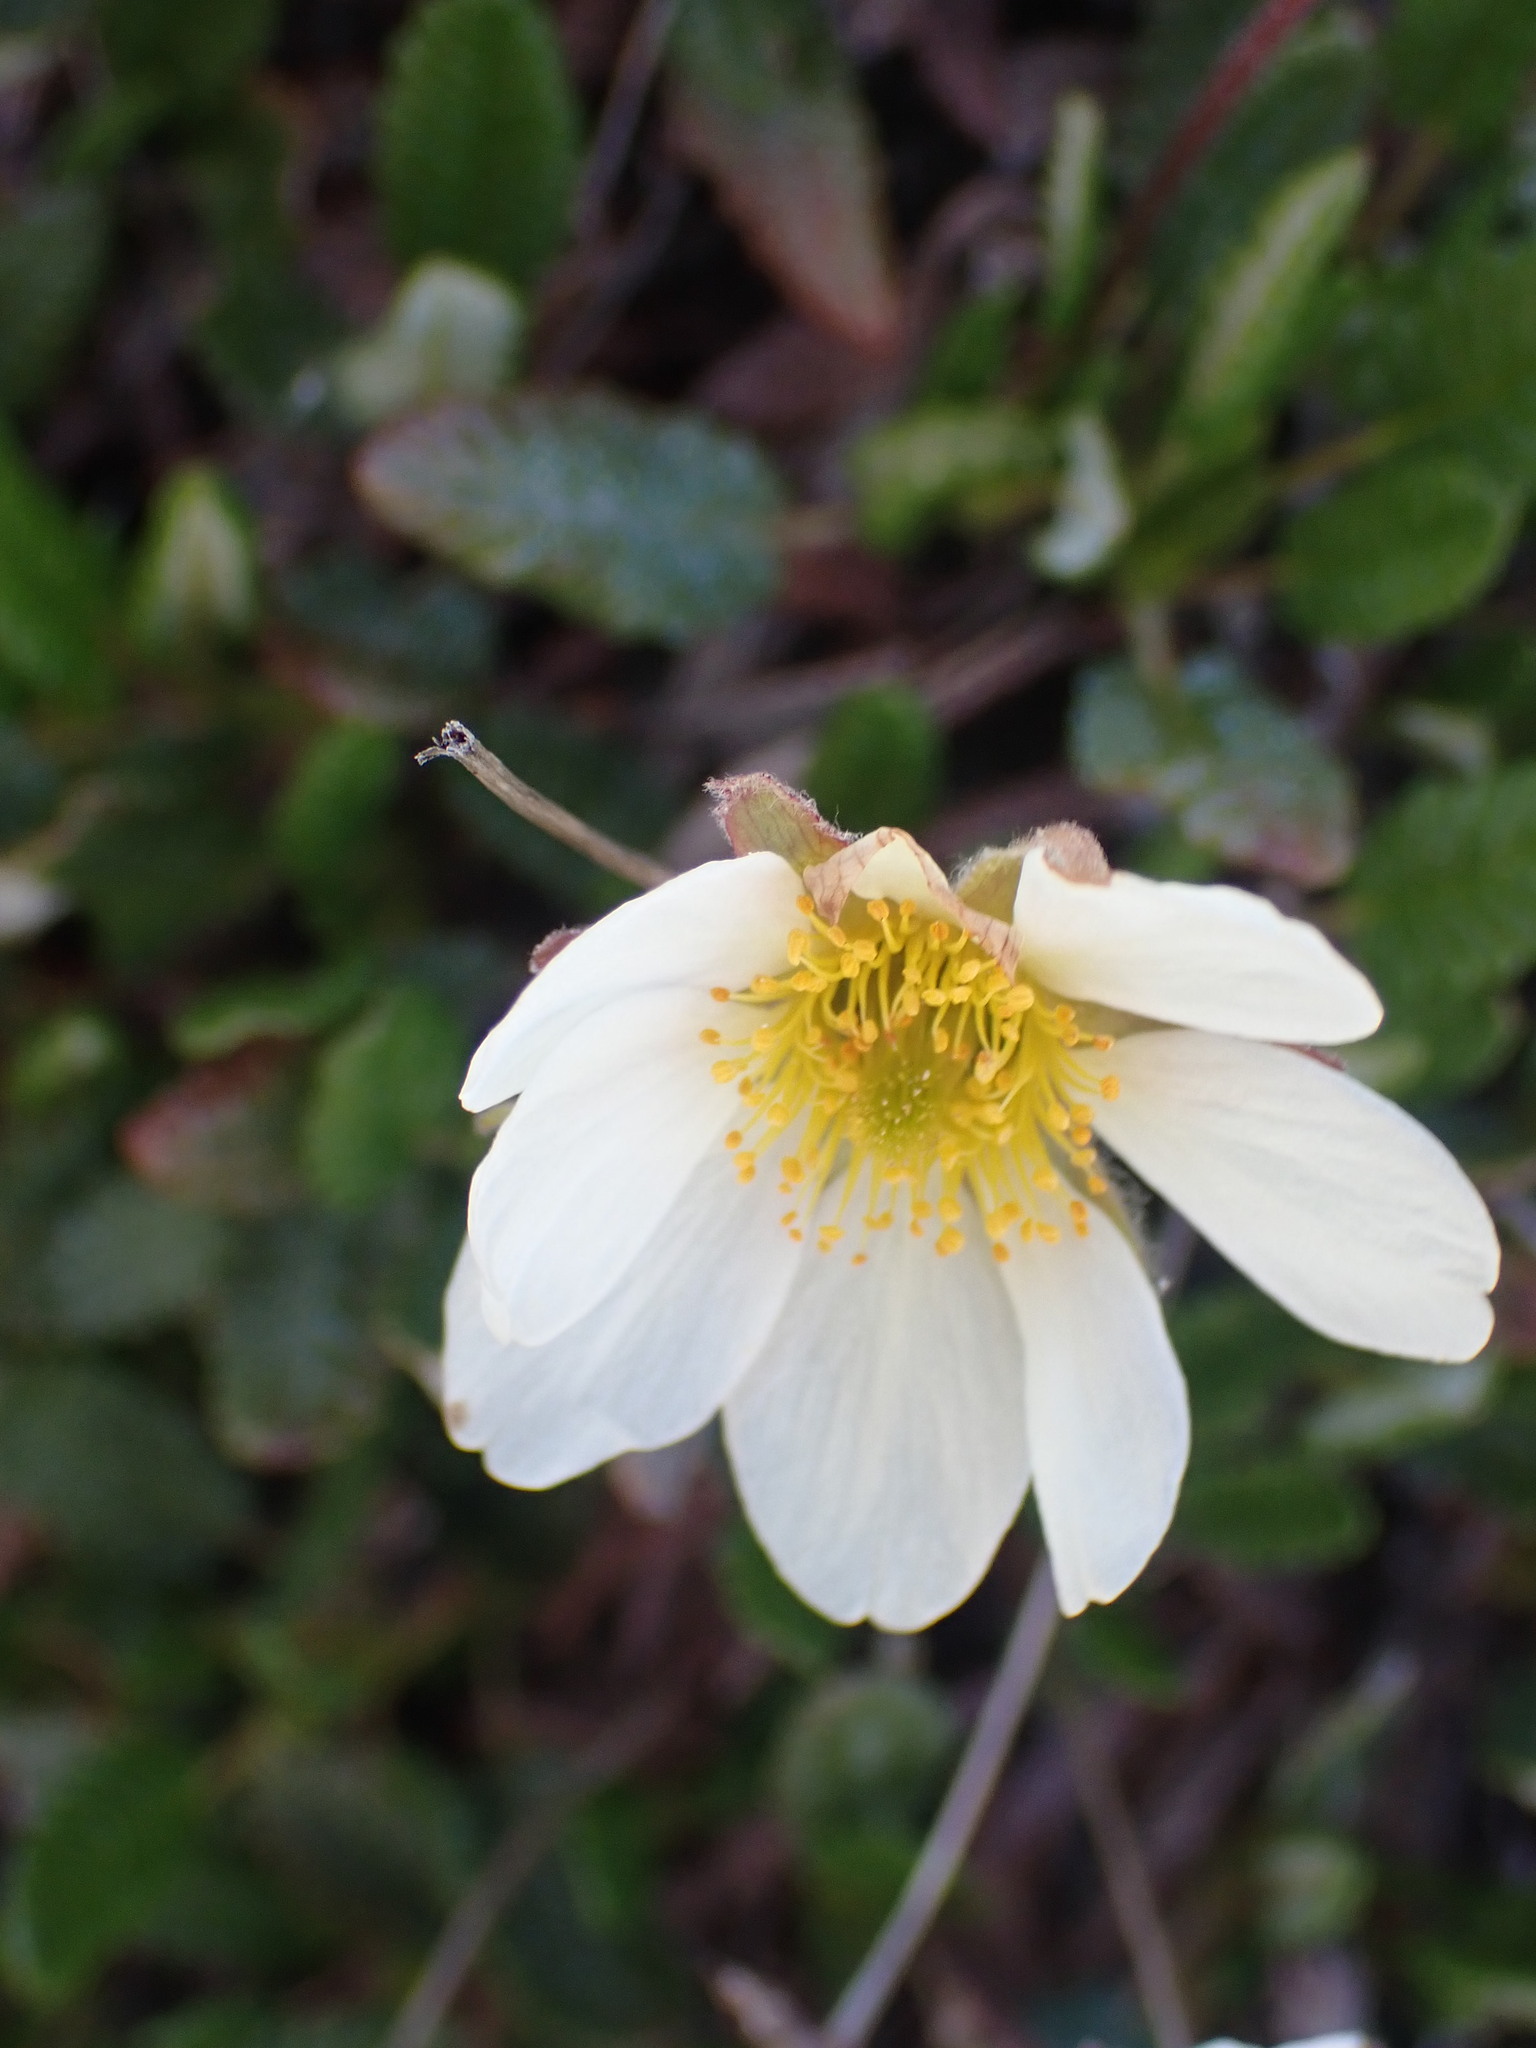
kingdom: Plantae
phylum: Tracheophyta
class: Magnoliopsida
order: Rosales
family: Rosaceae
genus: Dryas
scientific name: Dryas octopetala
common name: Eight-petal mountain-avens
